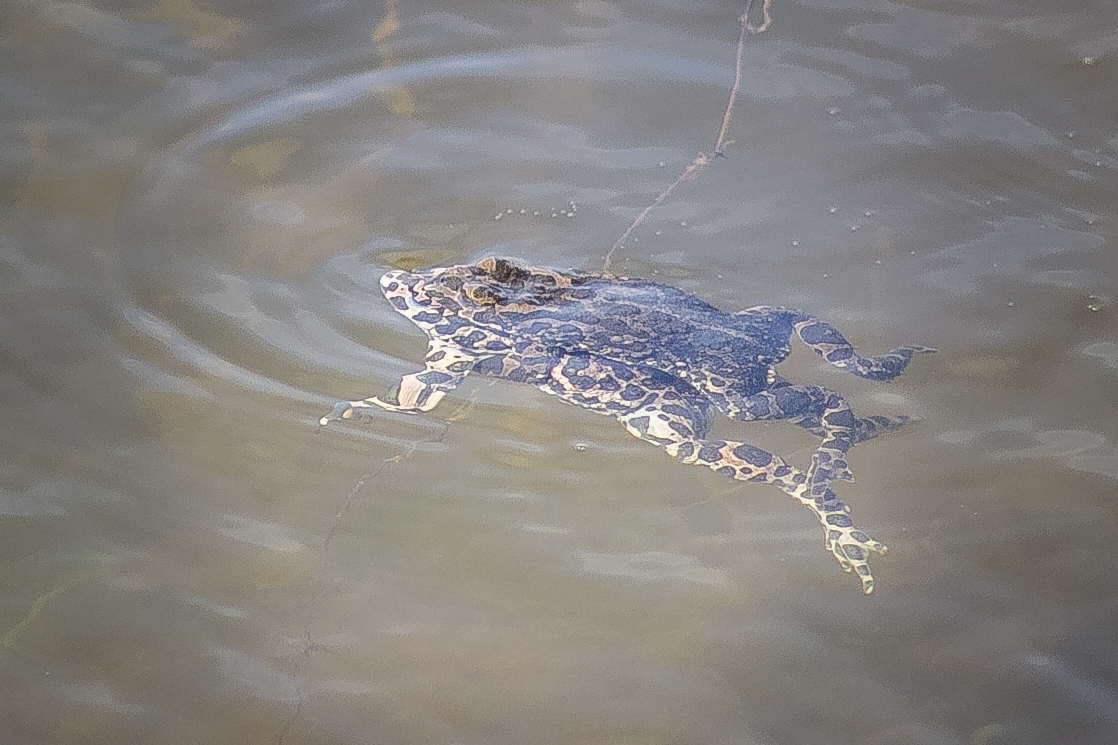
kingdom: Animalia
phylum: Chordata
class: Amphibia
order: Anura
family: Bufonidae
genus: Bufotes
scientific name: Bufotes viridis
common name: European green toad
